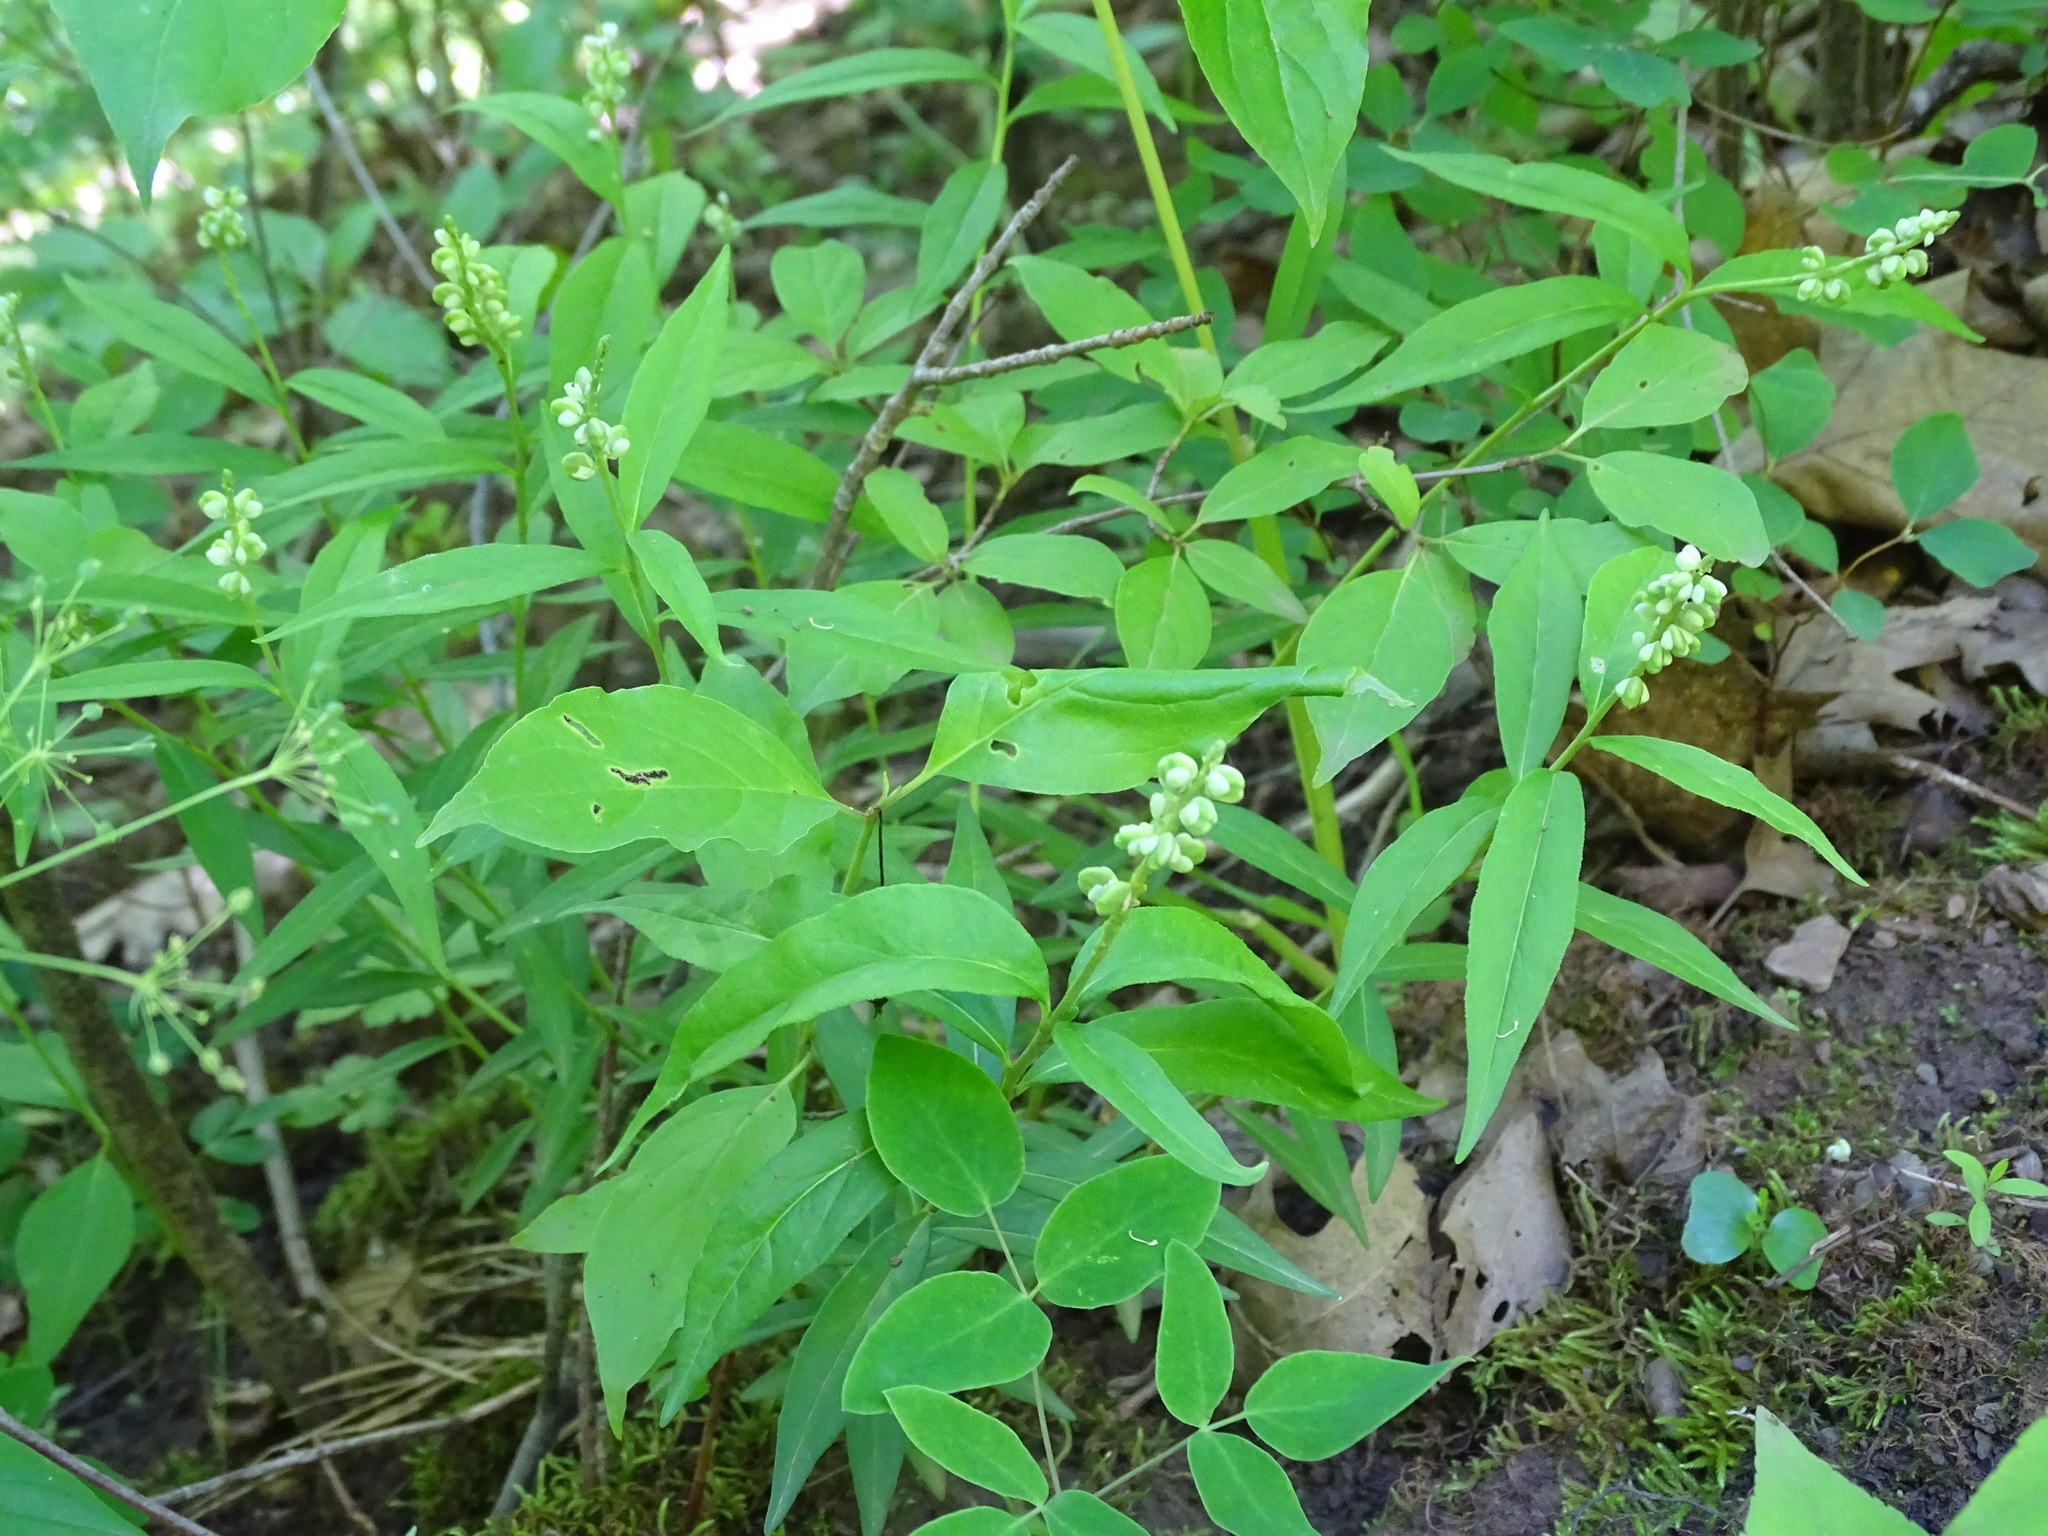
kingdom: Plantae
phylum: Tracheophyta
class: Magnoliopsida
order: Fabales
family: Polygalaceae
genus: Polygala
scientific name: Polygala senega
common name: Seneca snakeroot
